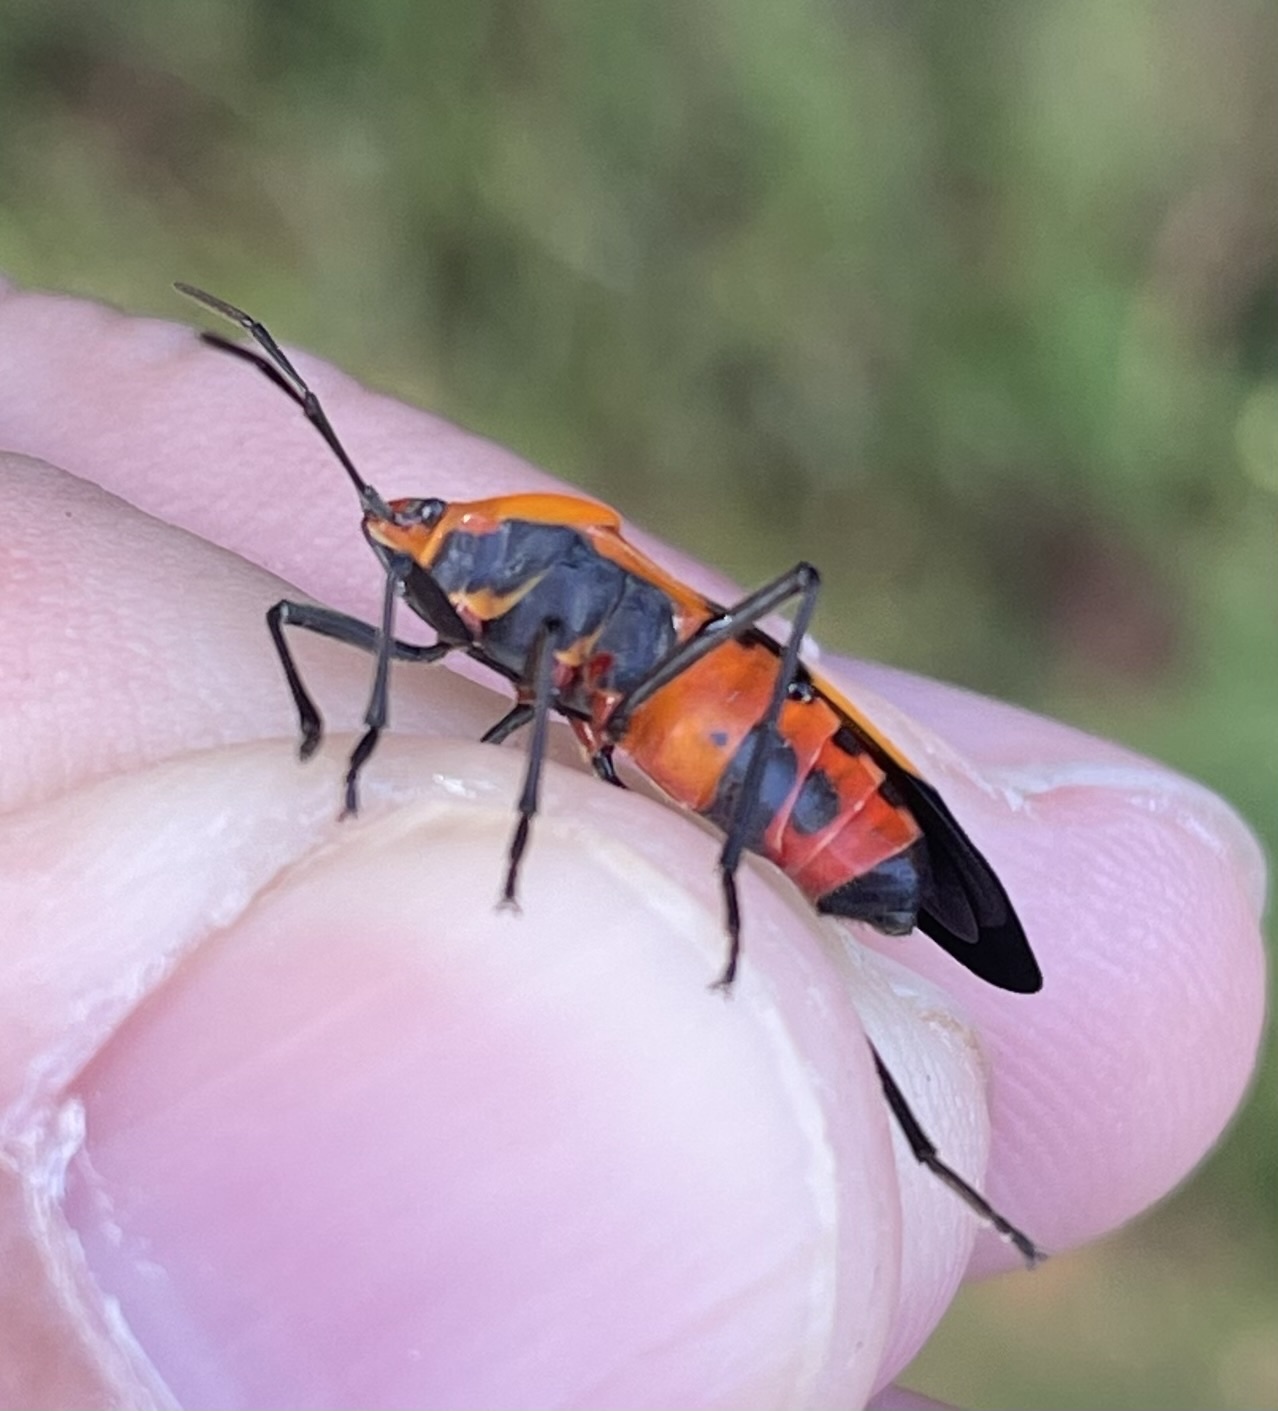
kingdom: Animalia
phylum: Arthropoda
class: Insecta
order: Hemiptera
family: Lygaeidae
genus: Oncopeltus
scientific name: Oncopeltus fasciatus
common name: Large milkweed bug
